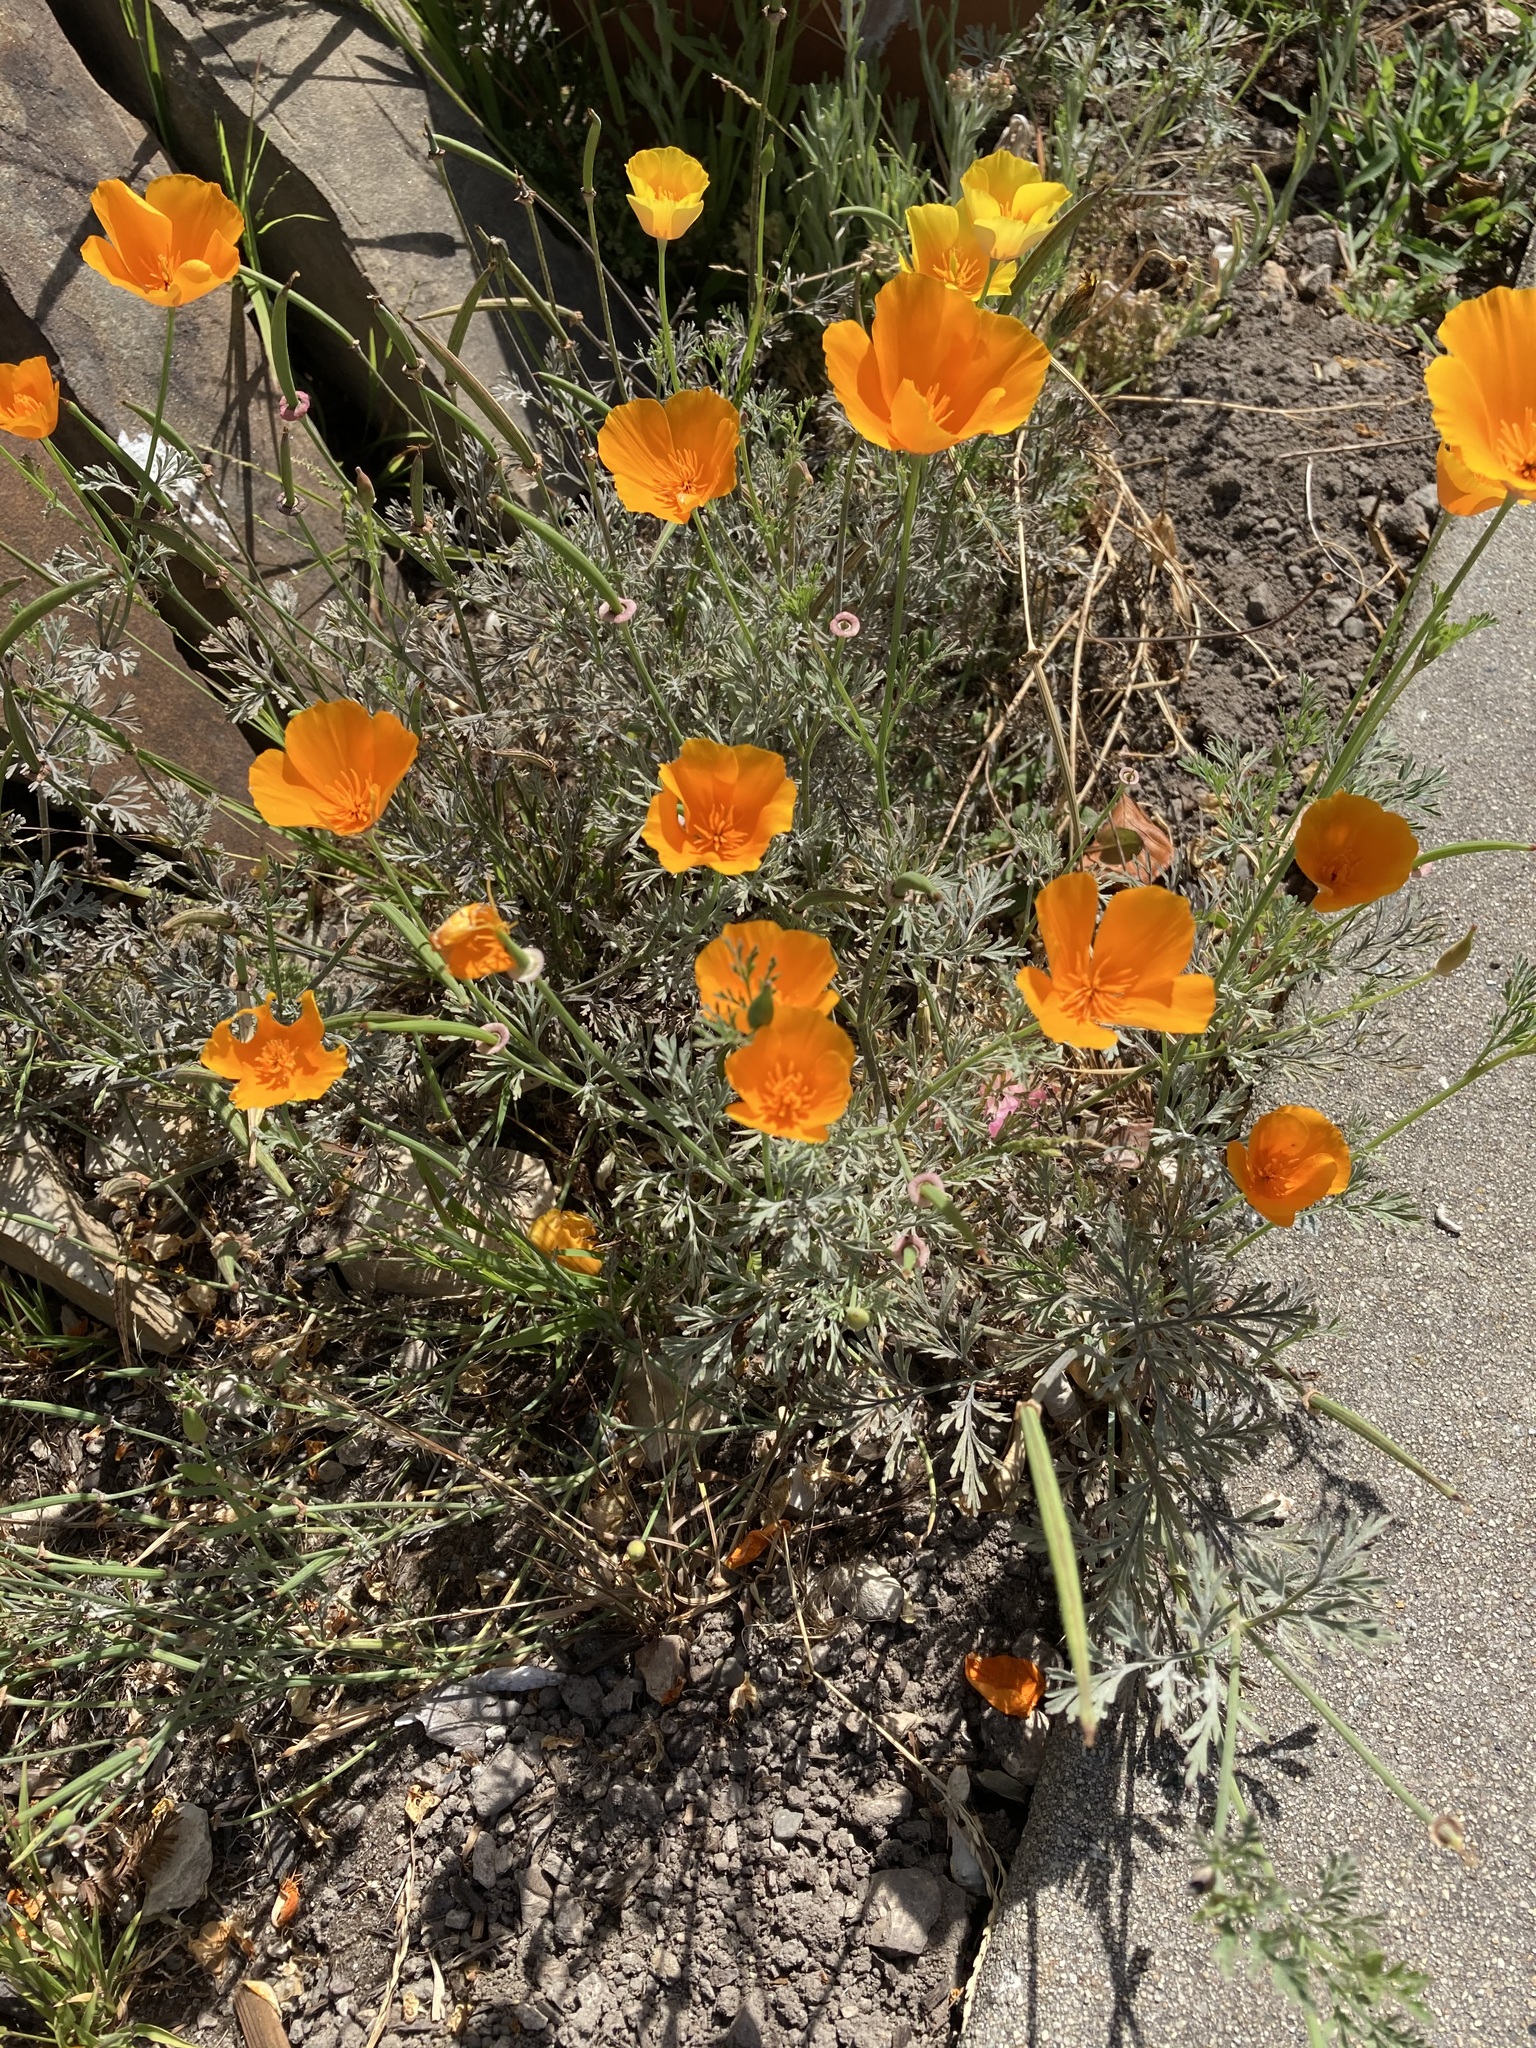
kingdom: Plantae
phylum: Tracheophyta
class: Magnoliopsida
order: Ranunculales
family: Papaveraceae
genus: Eschscholzia
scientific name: Eschscholzia californica
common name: California poppy
